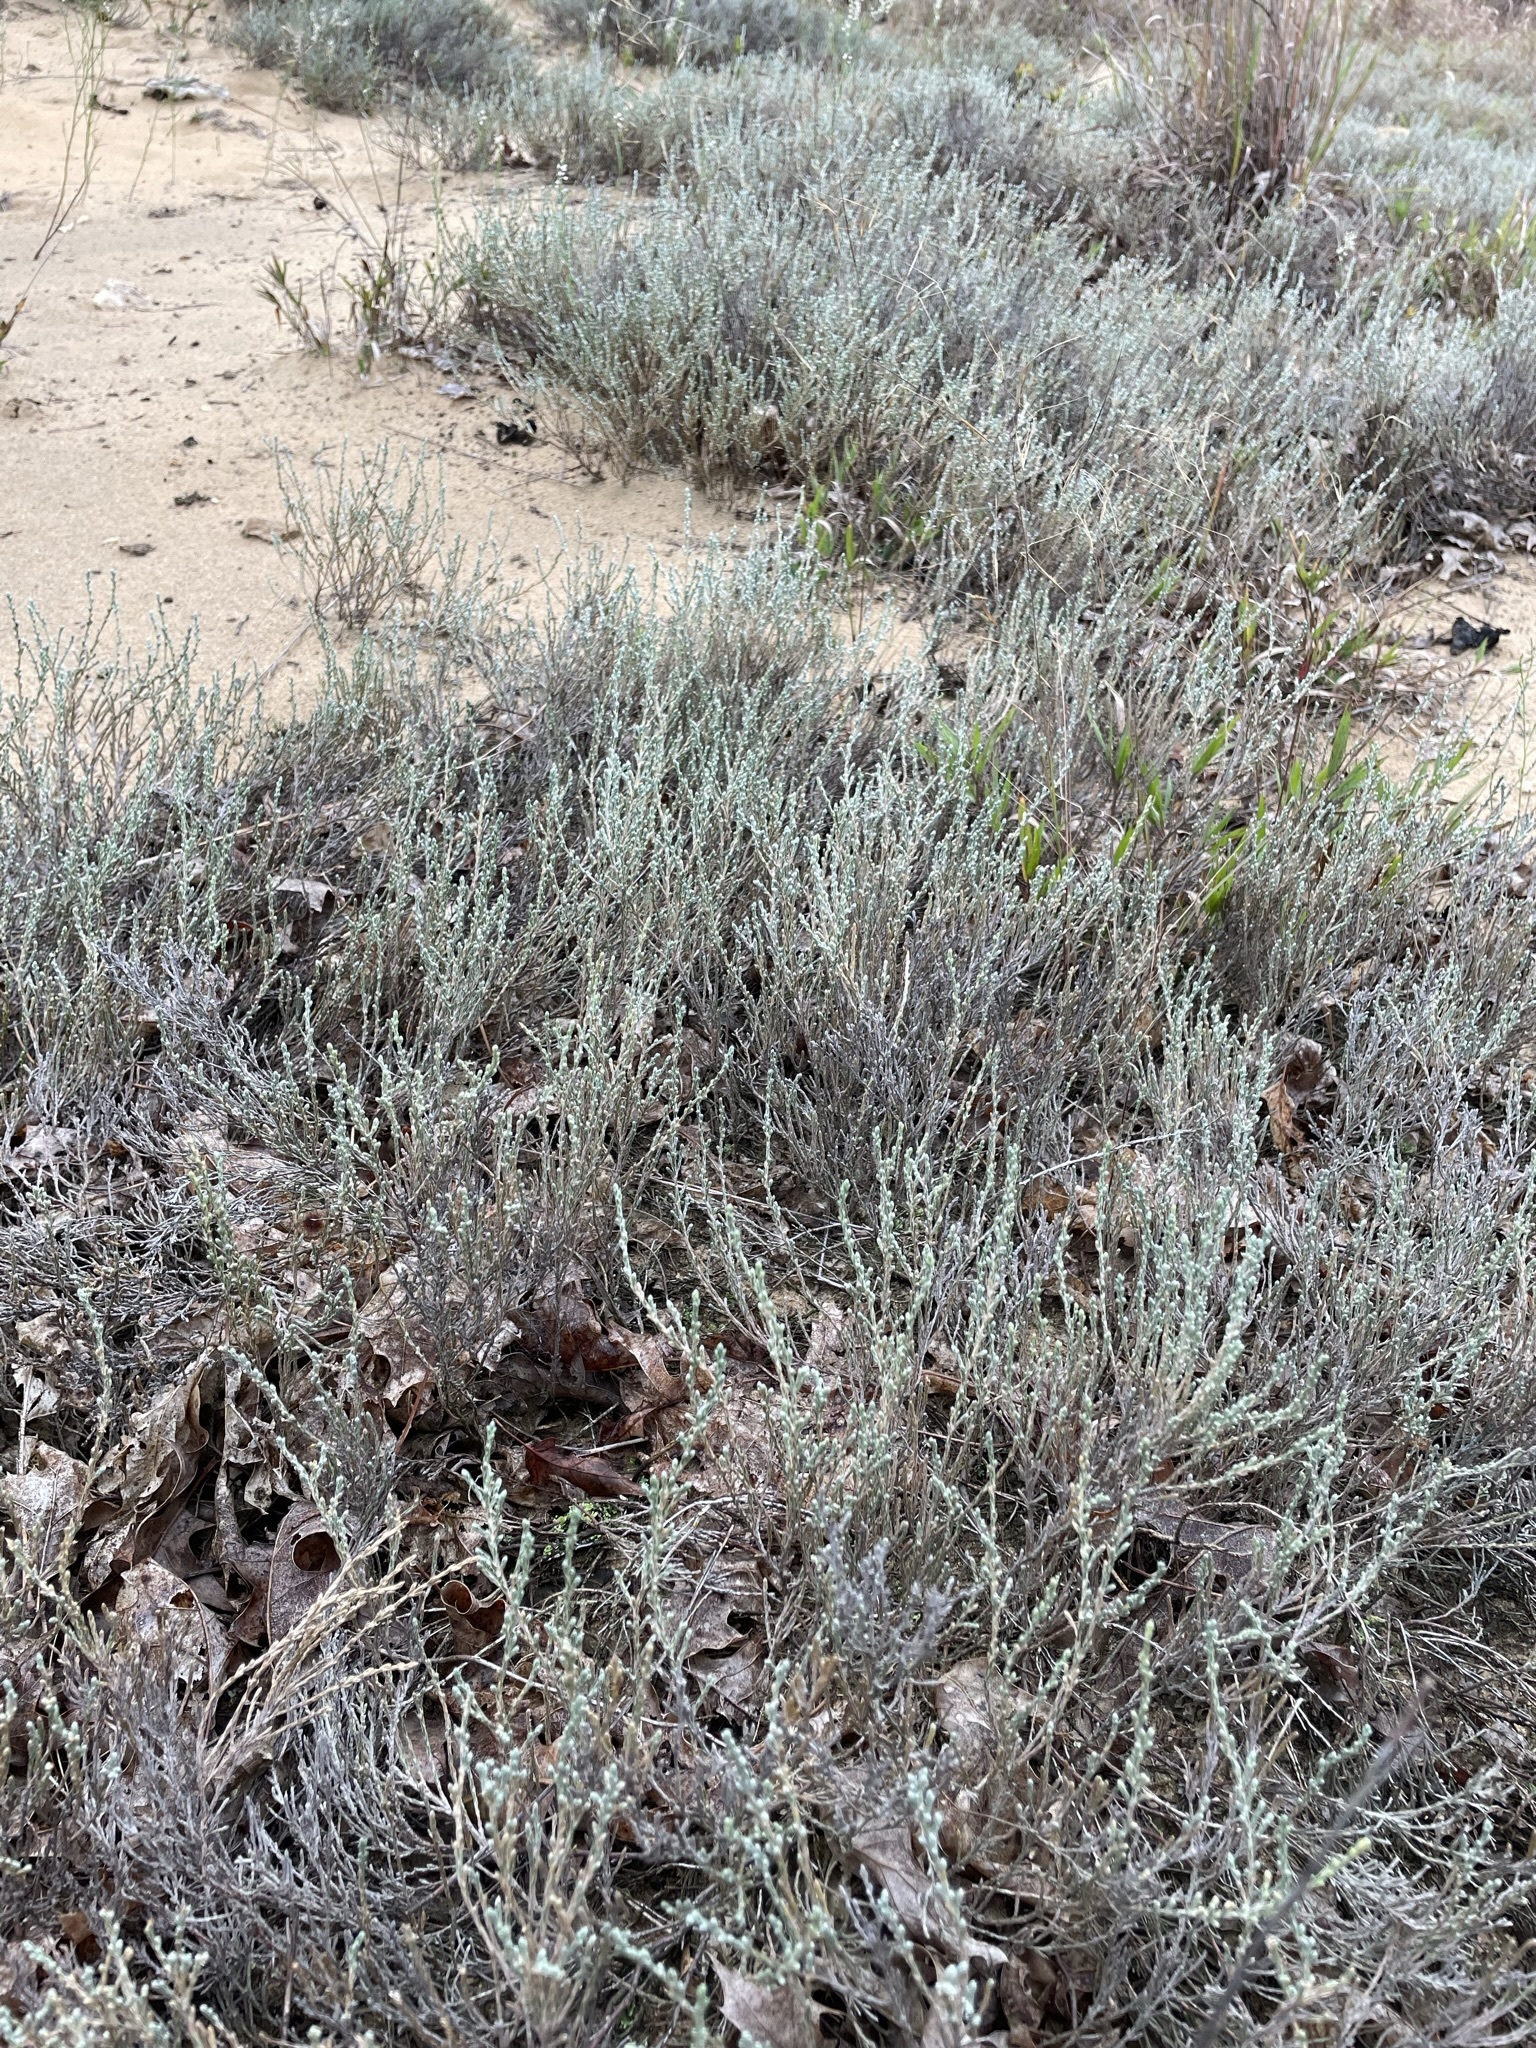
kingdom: Plantae
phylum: Tracheophyta
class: Magnoliopsida
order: Malvales
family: Cistaceae
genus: Hudsonia
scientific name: Hudsonia tomentosa
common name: Beach-heath
